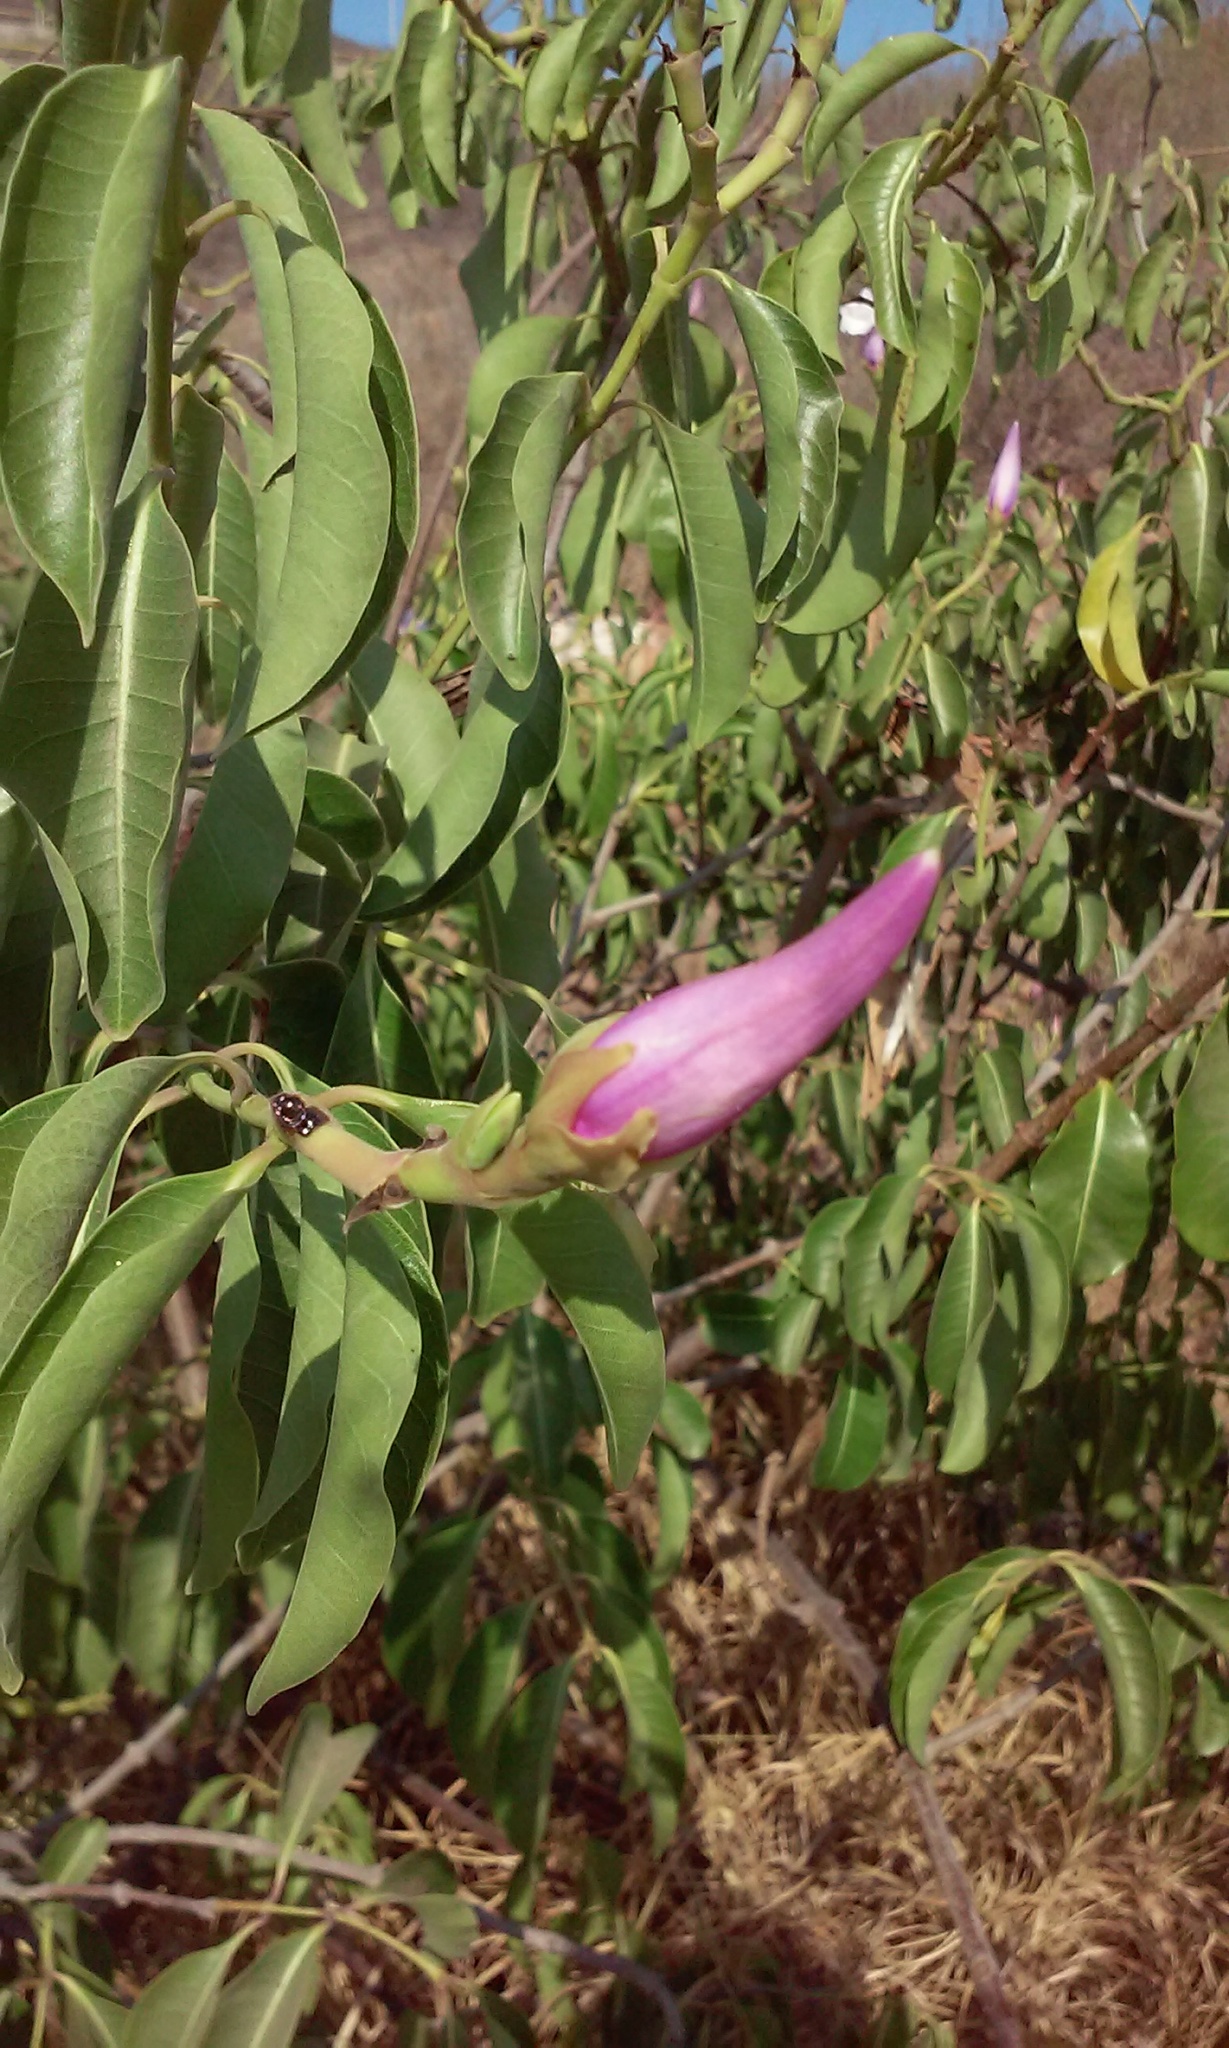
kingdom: Plantae
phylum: Tracheophyta
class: Magnoliopsida
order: Gentianales
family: Apocynaceae
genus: Cryptostegia
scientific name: Cryptostegia grandiflora
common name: Palay rubbervine
